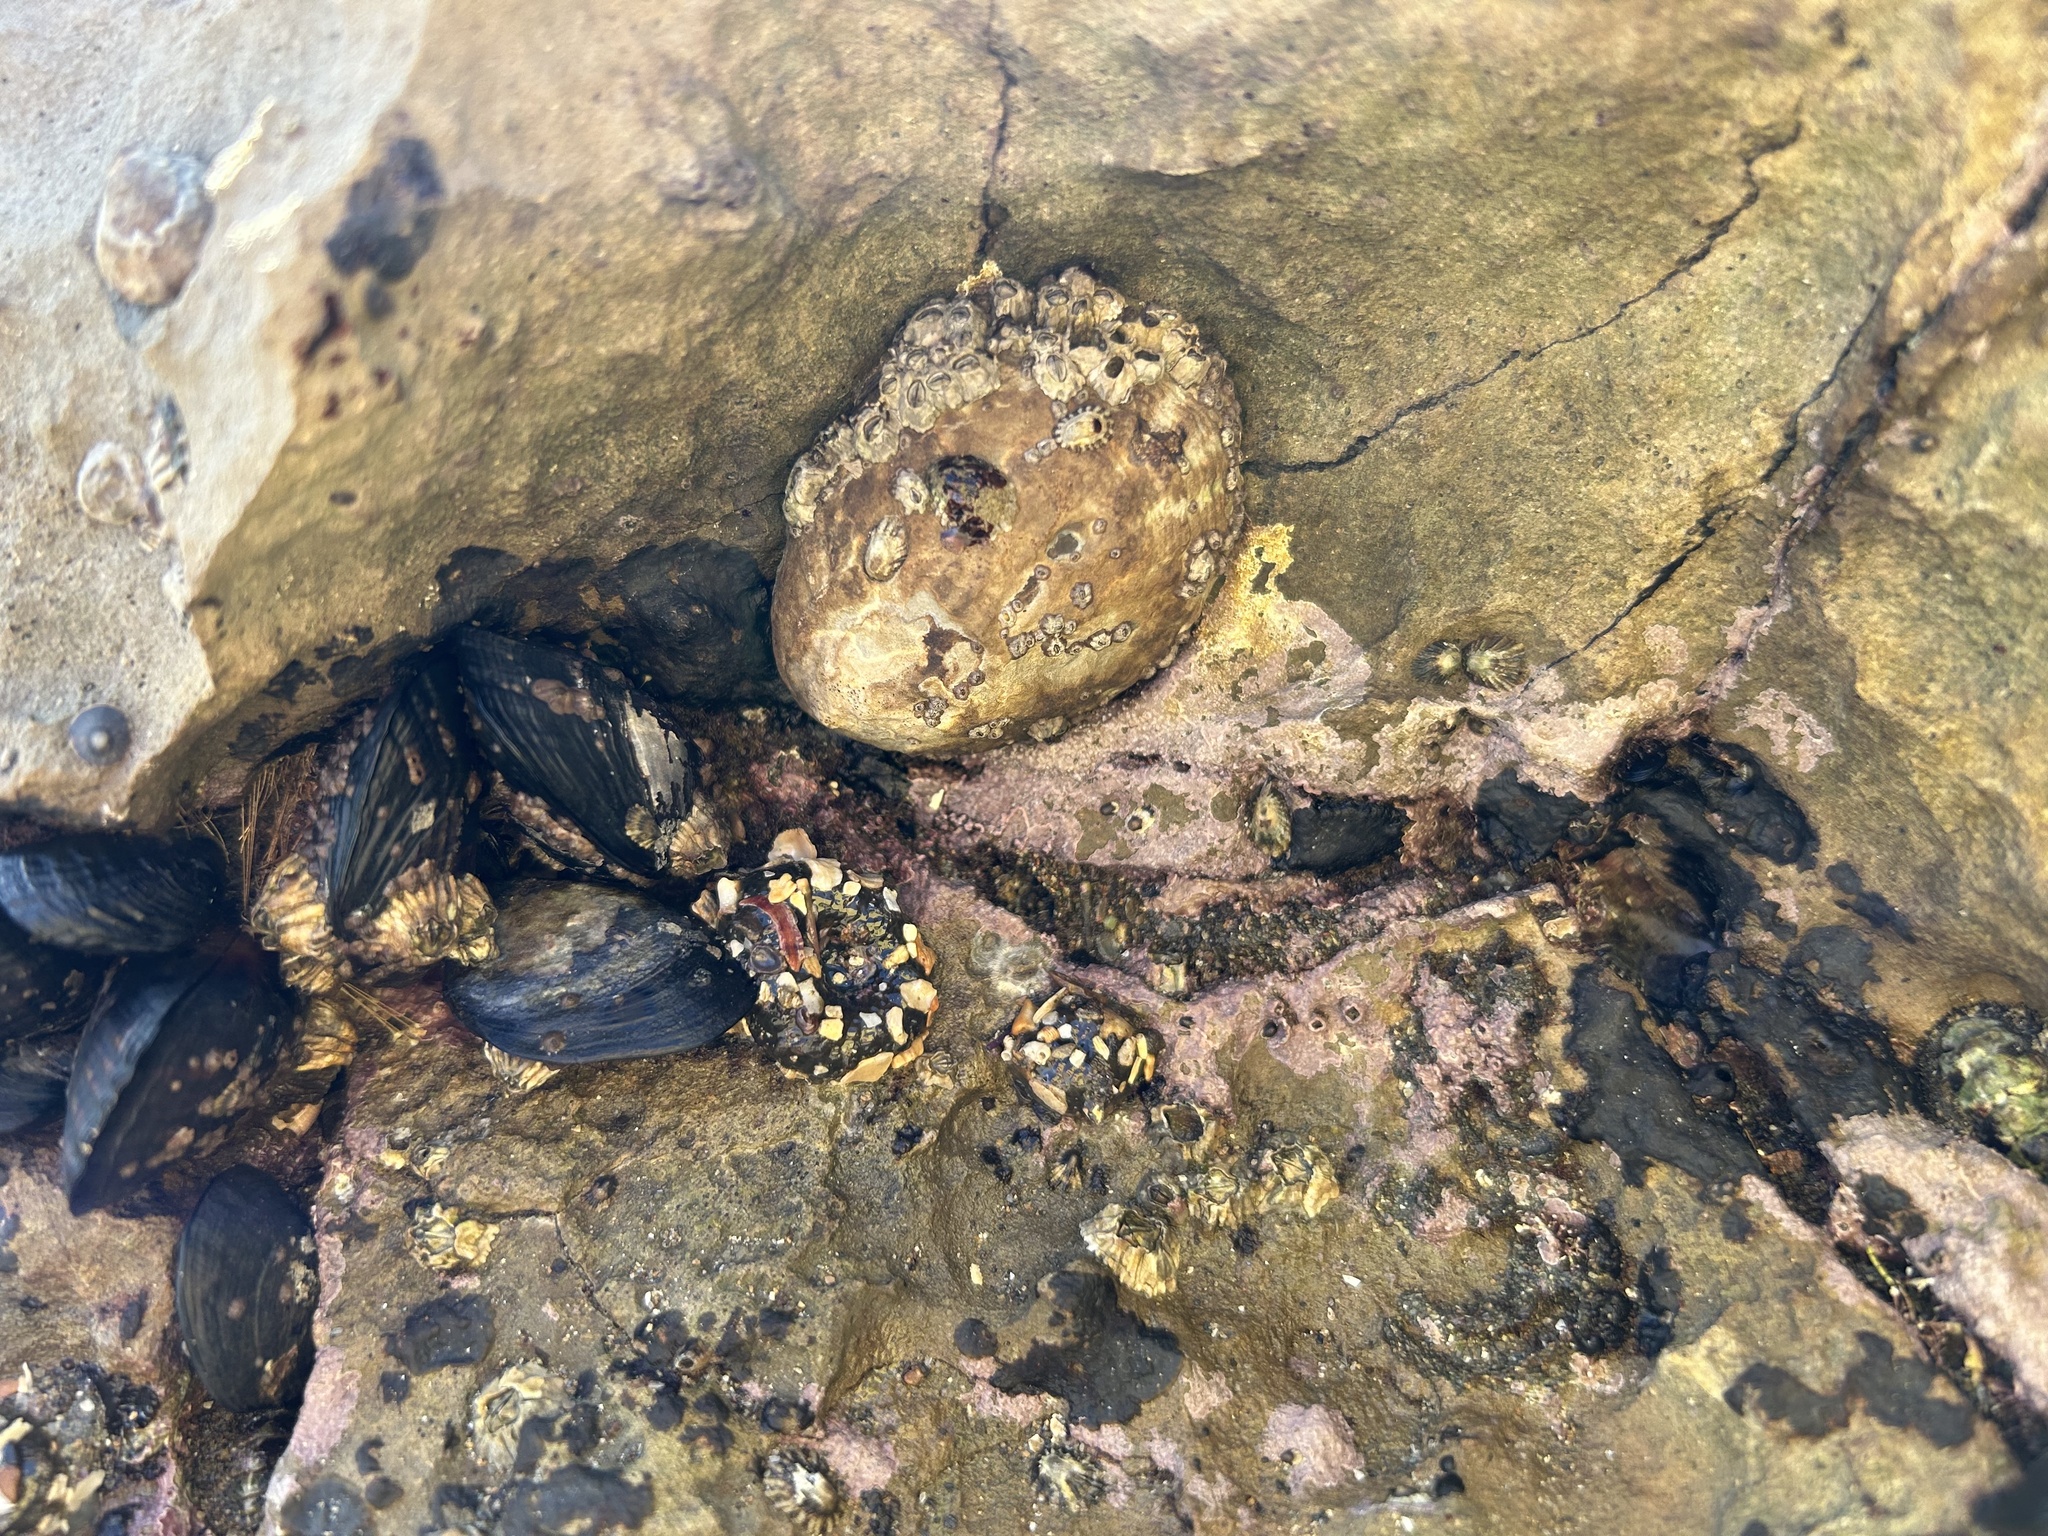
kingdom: Animalia
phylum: Mollusca
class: Gastropoda
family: Lottiidae
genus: Lottia
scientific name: Lottia gigantea
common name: Owl limpet
